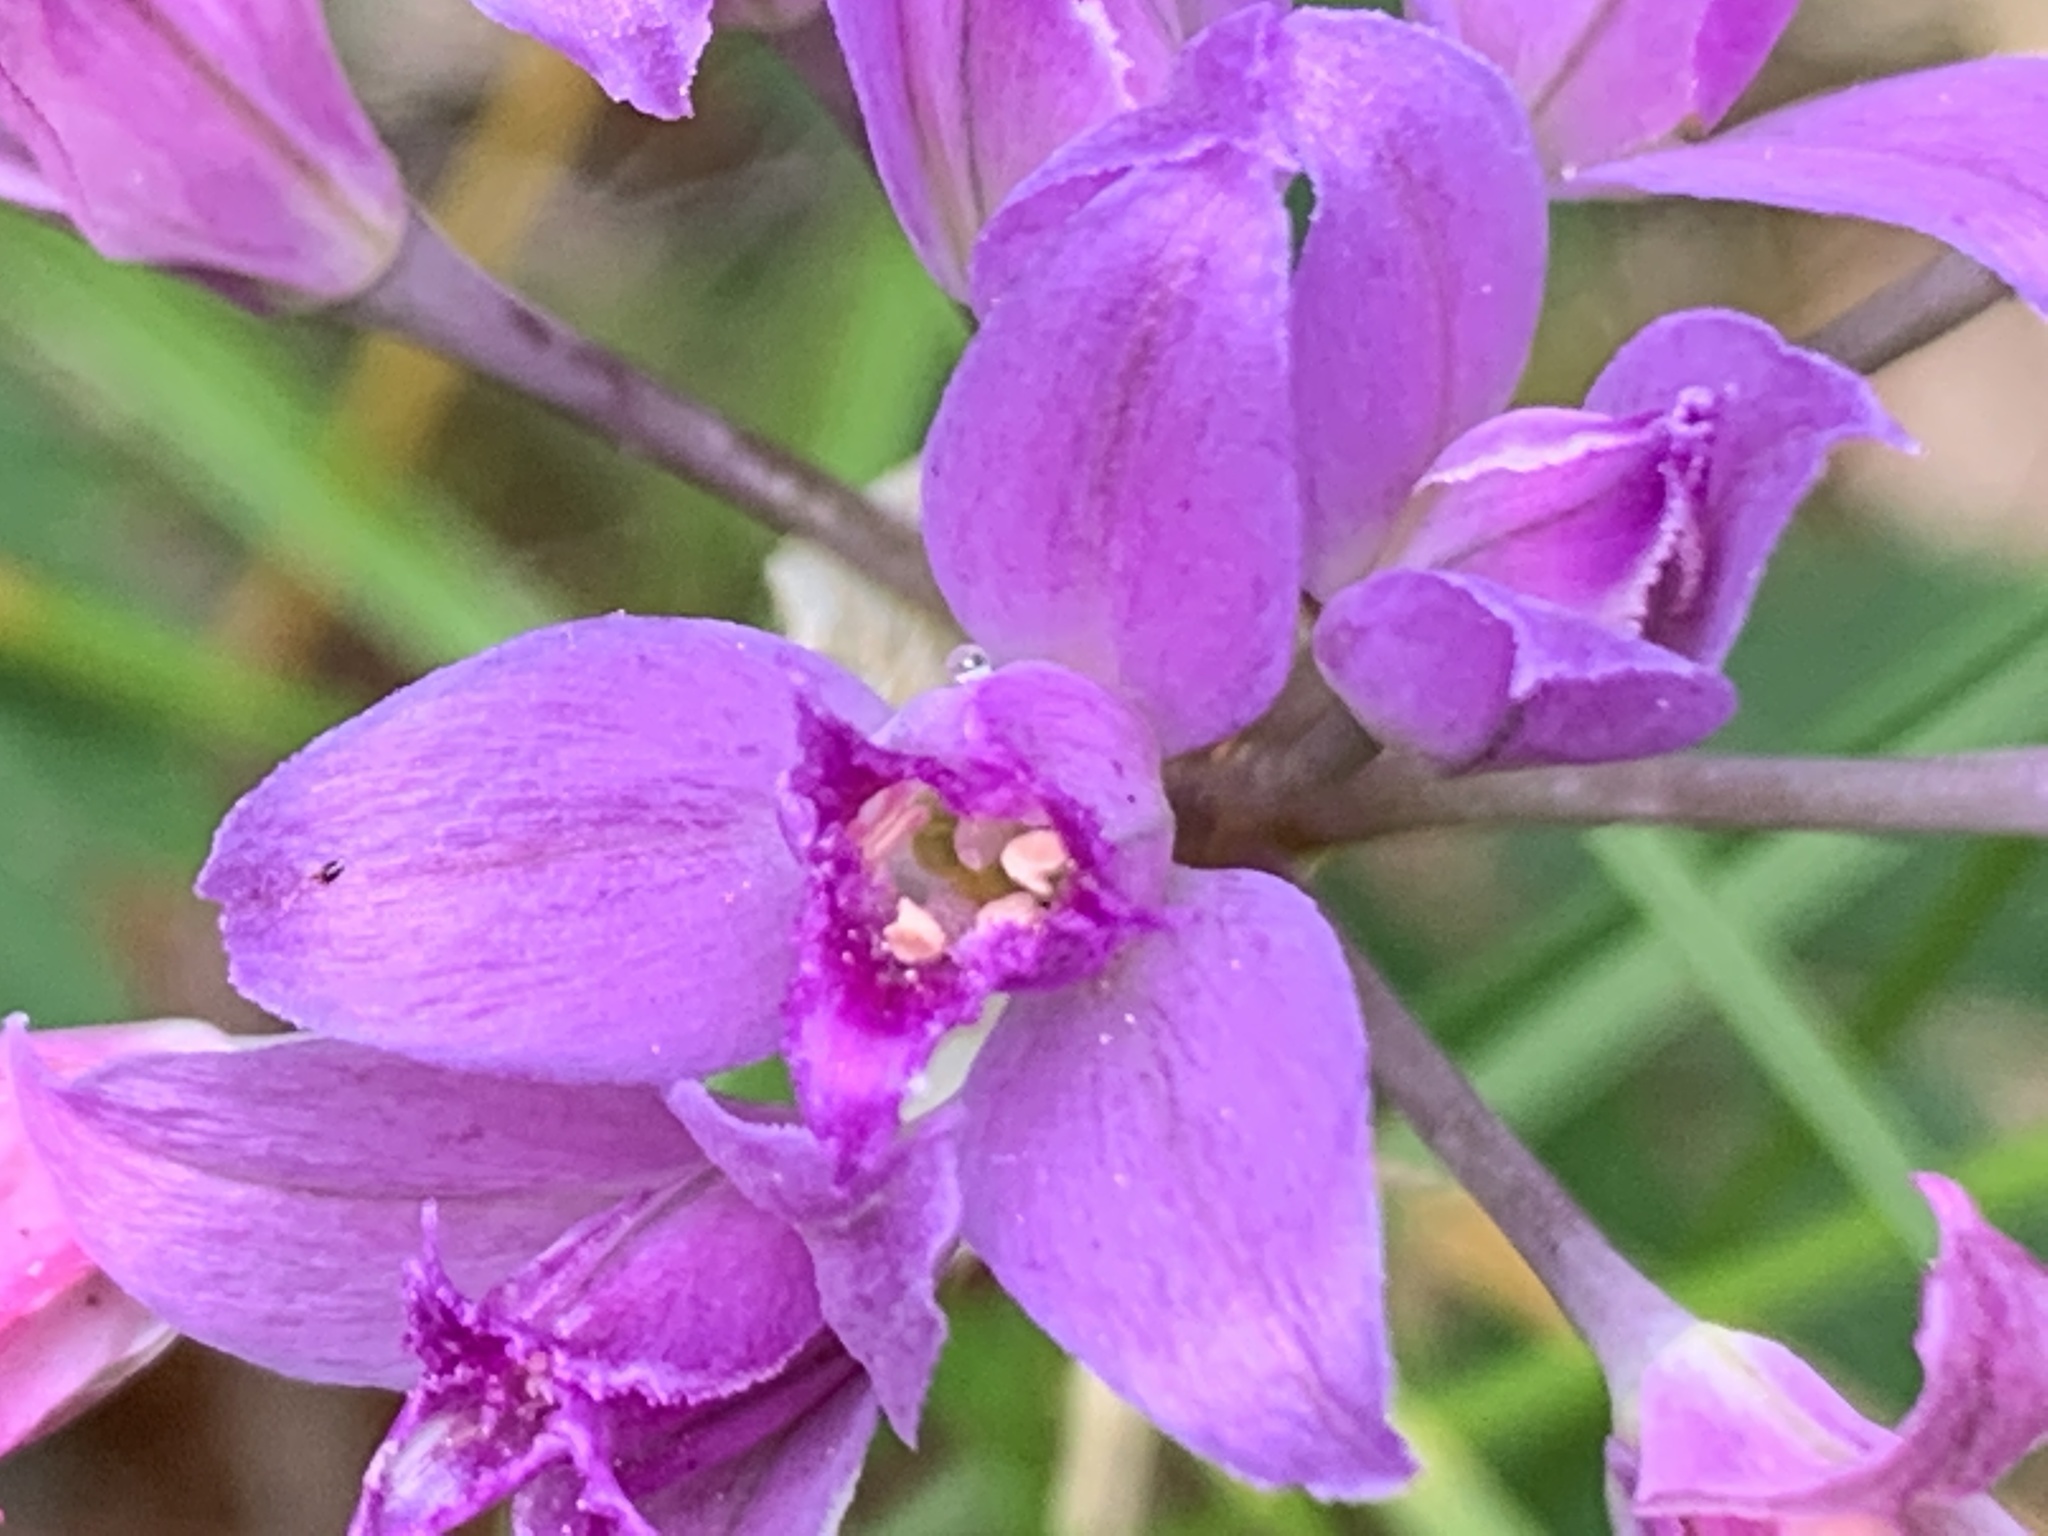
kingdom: Plantae
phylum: Tracheophyta
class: Liliopsida
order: Asparagales
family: Amaryllidaceae
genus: Allium
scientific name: Allium acuminatum
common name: Hooker's onion
